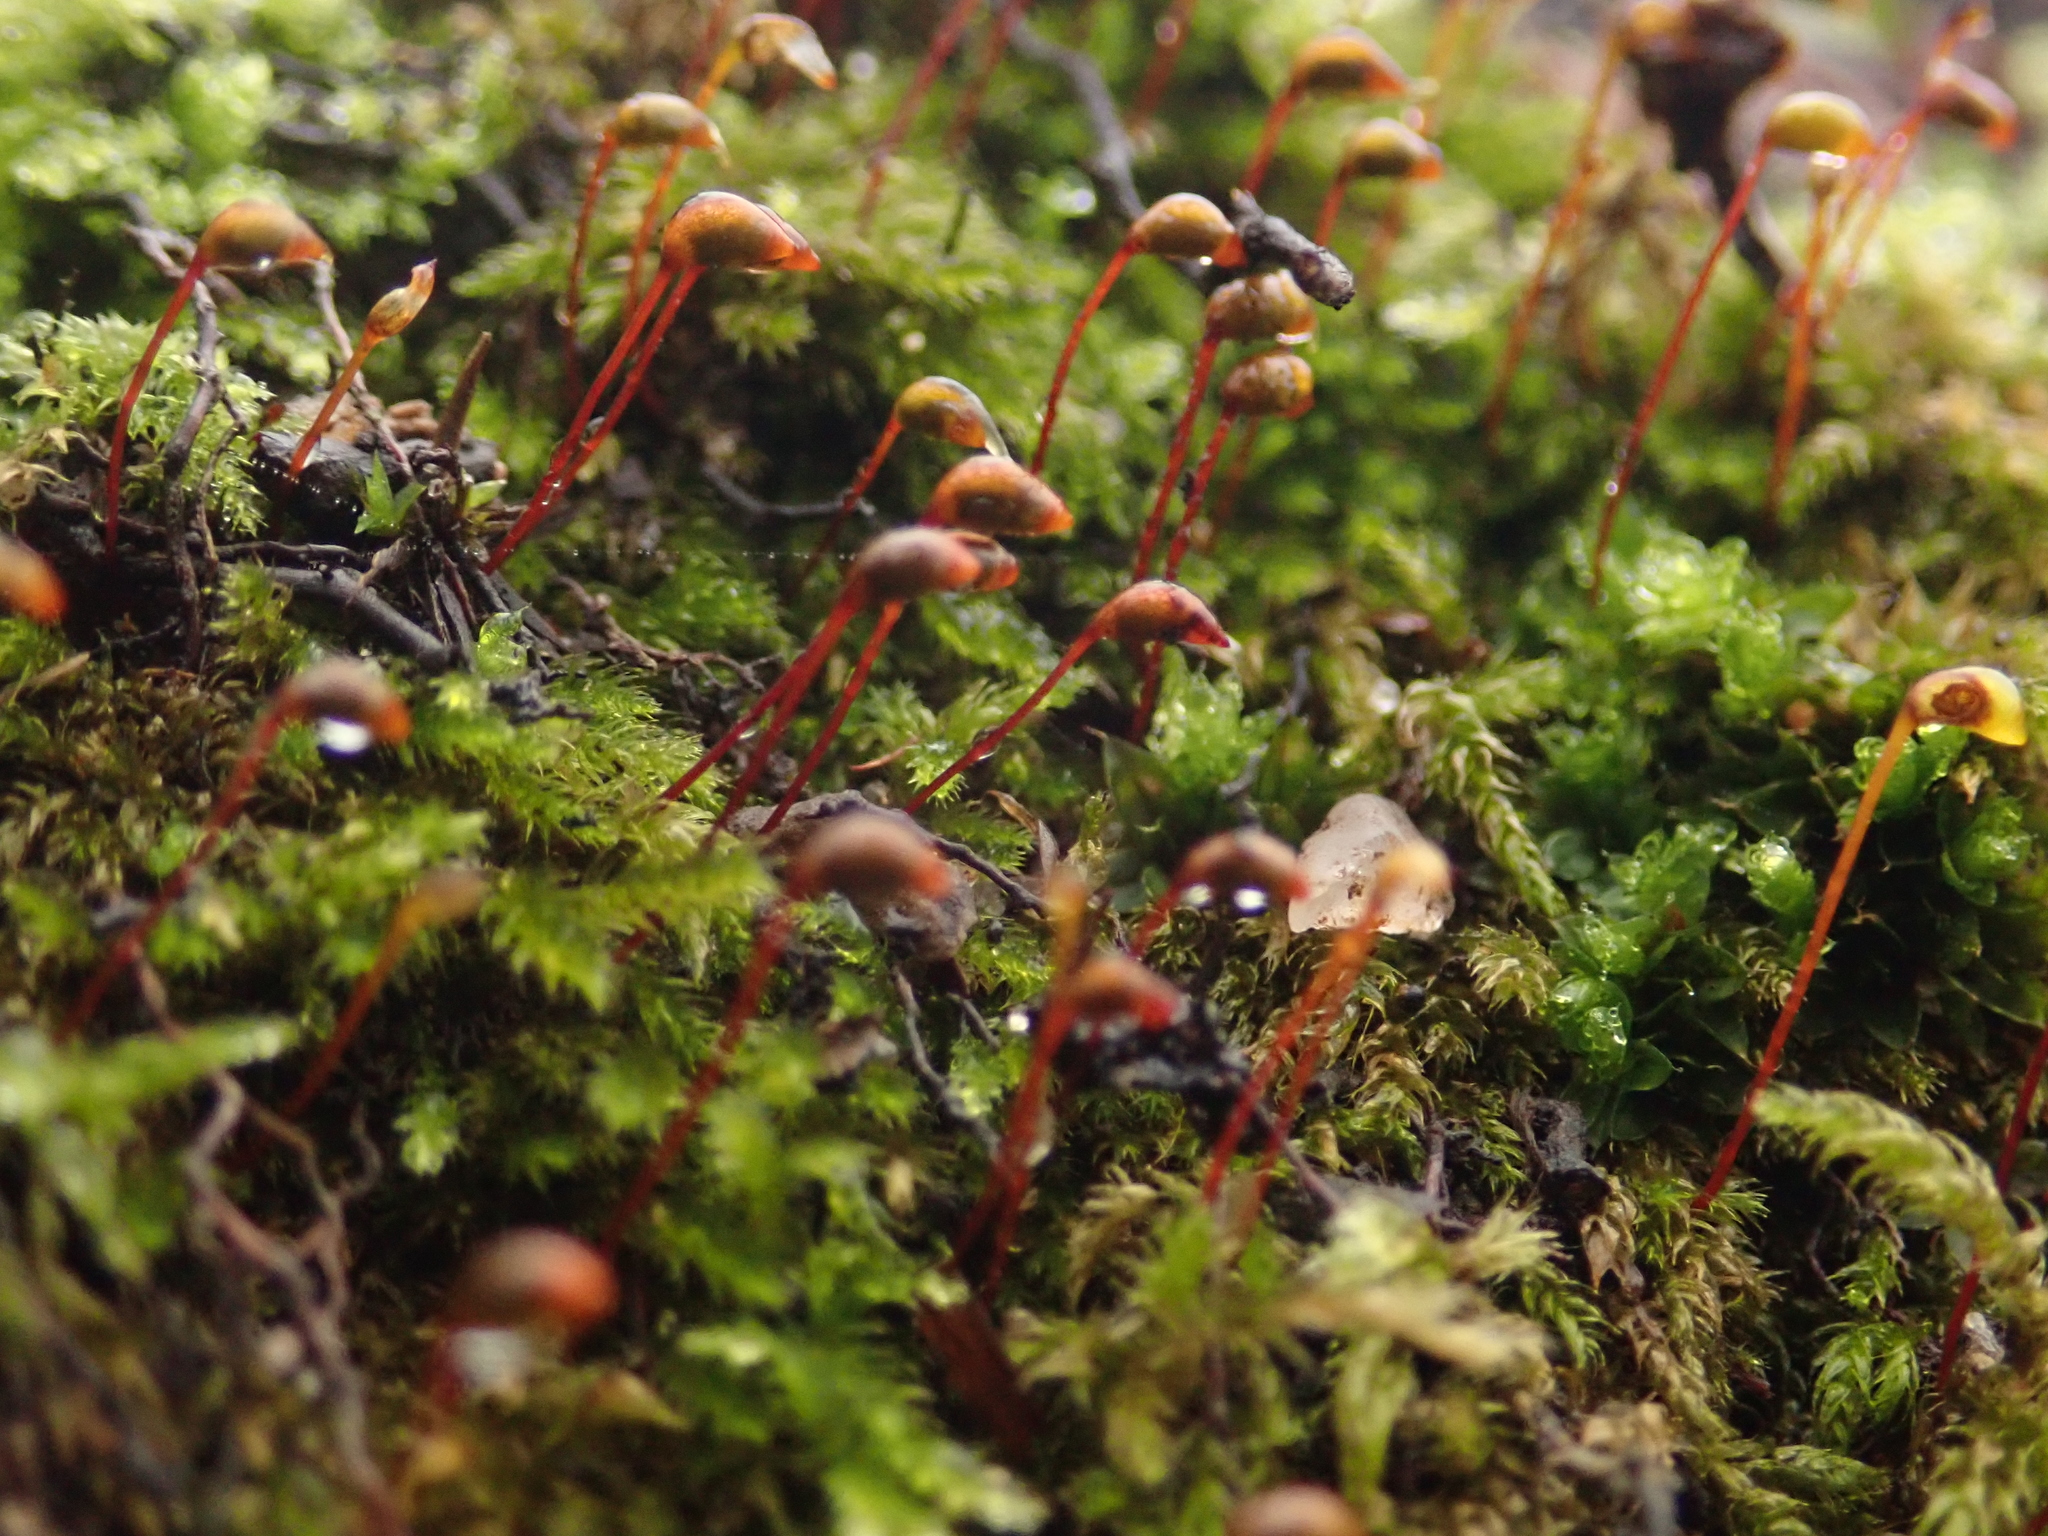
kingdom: Plantae
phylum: Bryophyta
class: Bryopsida
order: Hypnales
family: Brachytheciaceae
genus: Brachytheciastrum
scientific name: Brachytheciastrum velutinum
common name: Velvet feather-moss
